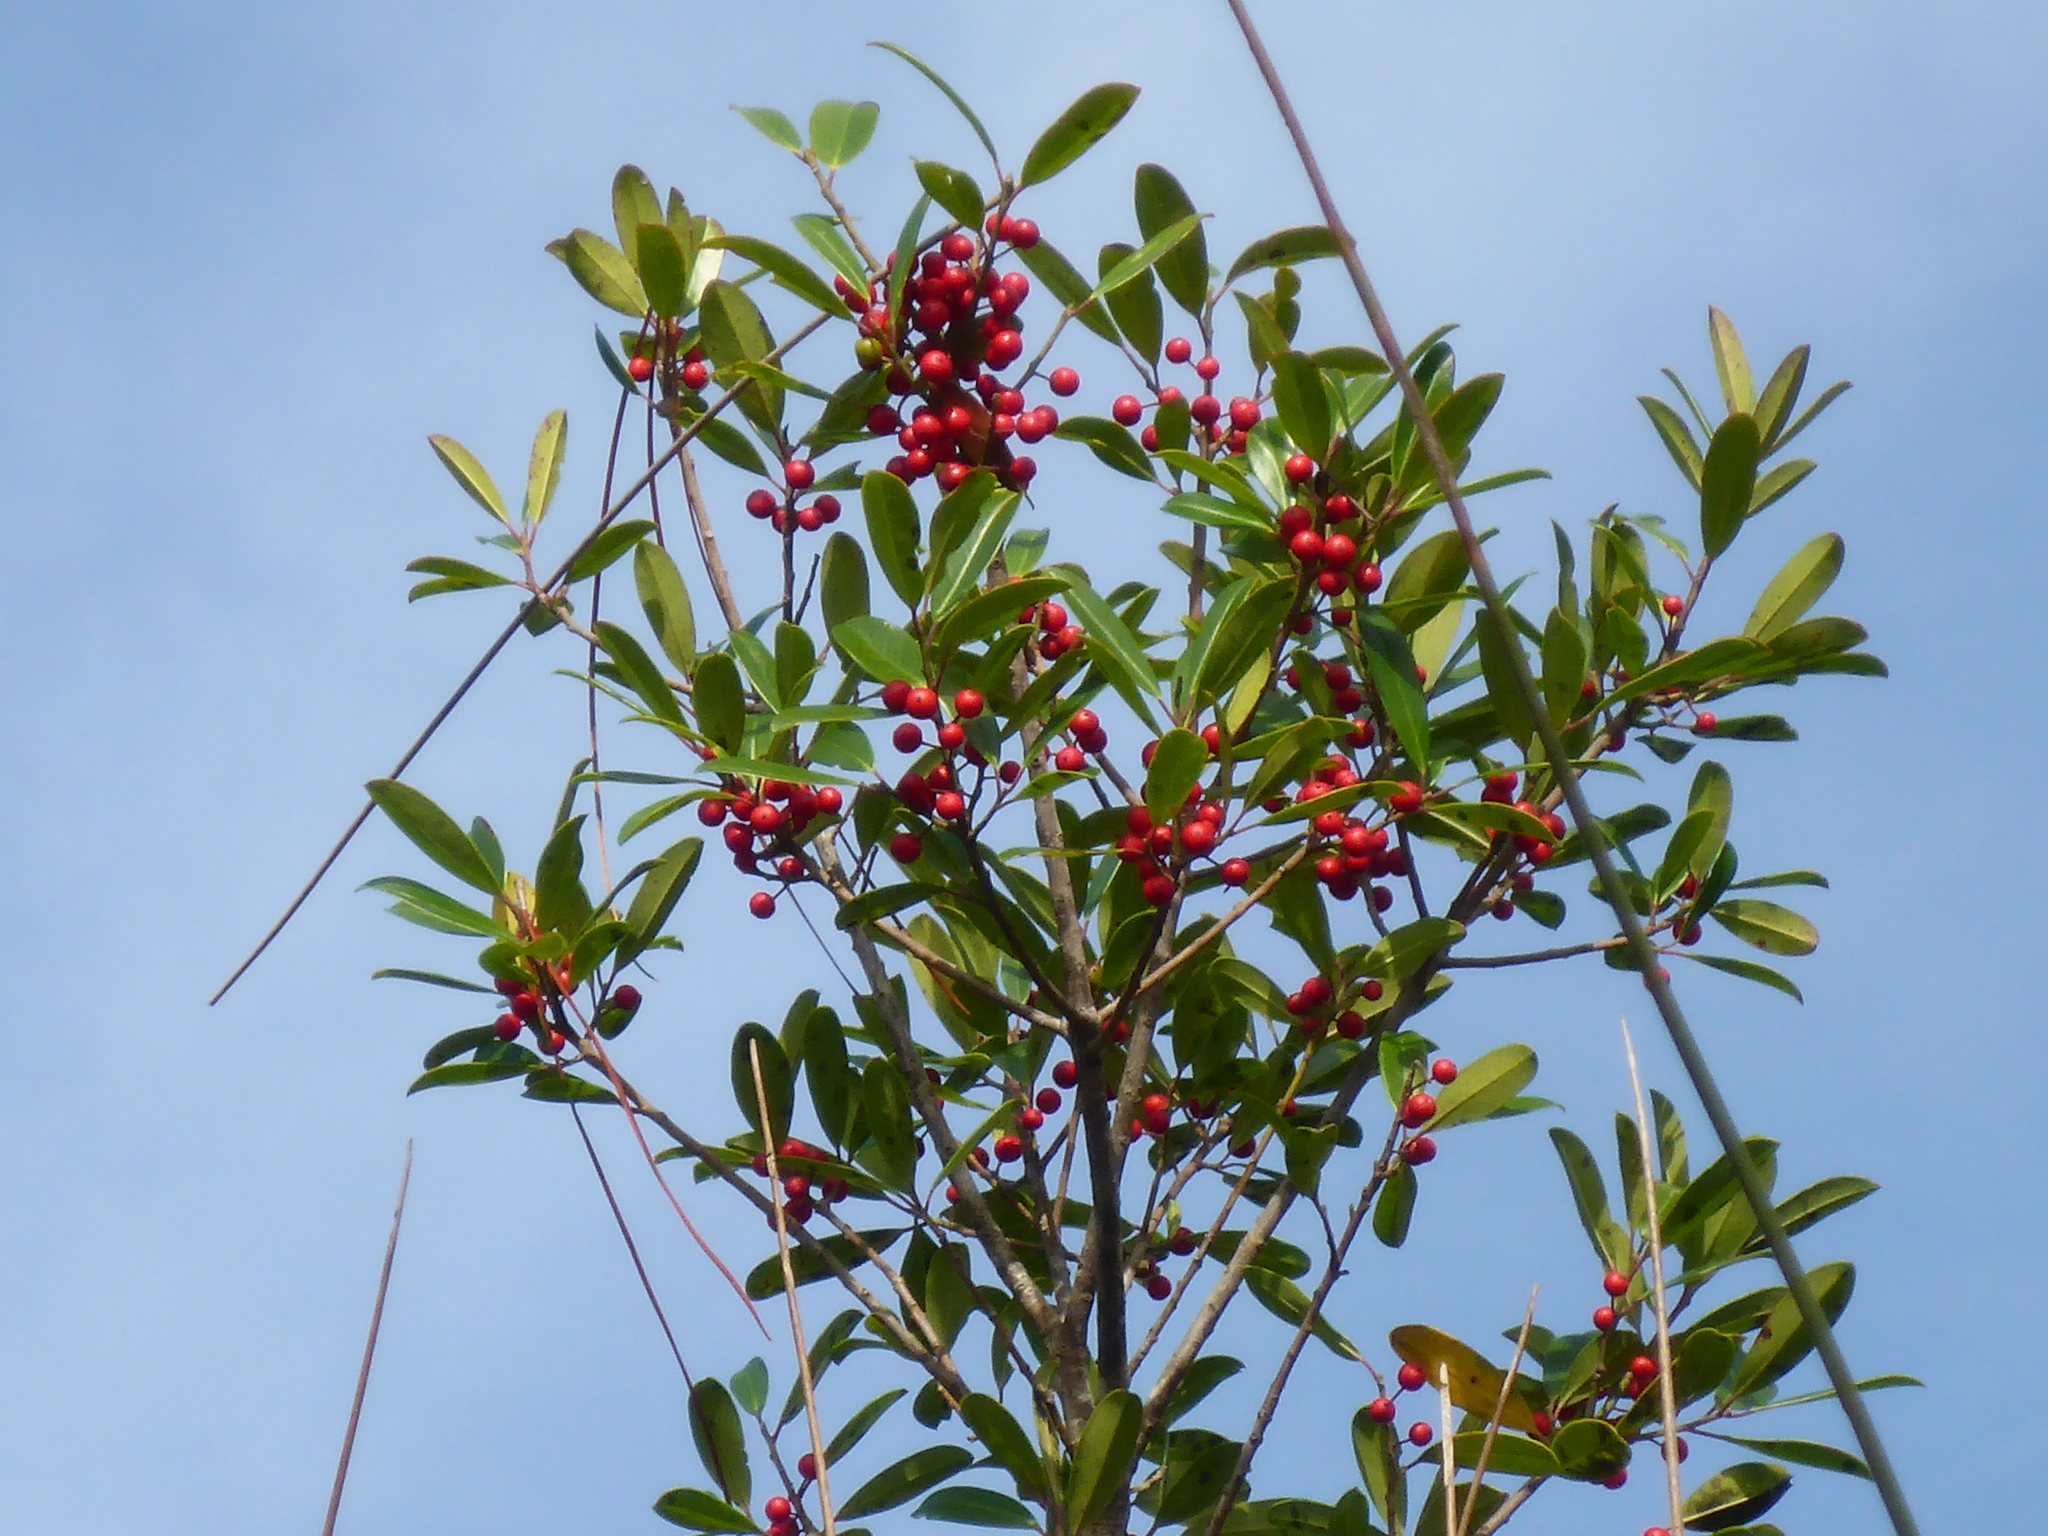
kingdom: Plantae
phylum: Tracheophyta
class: Magnoliopsida
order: Aquifoliales
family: Aquifoliaceae
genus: Ilex
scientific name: Ilex cassine
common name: Dahoon
